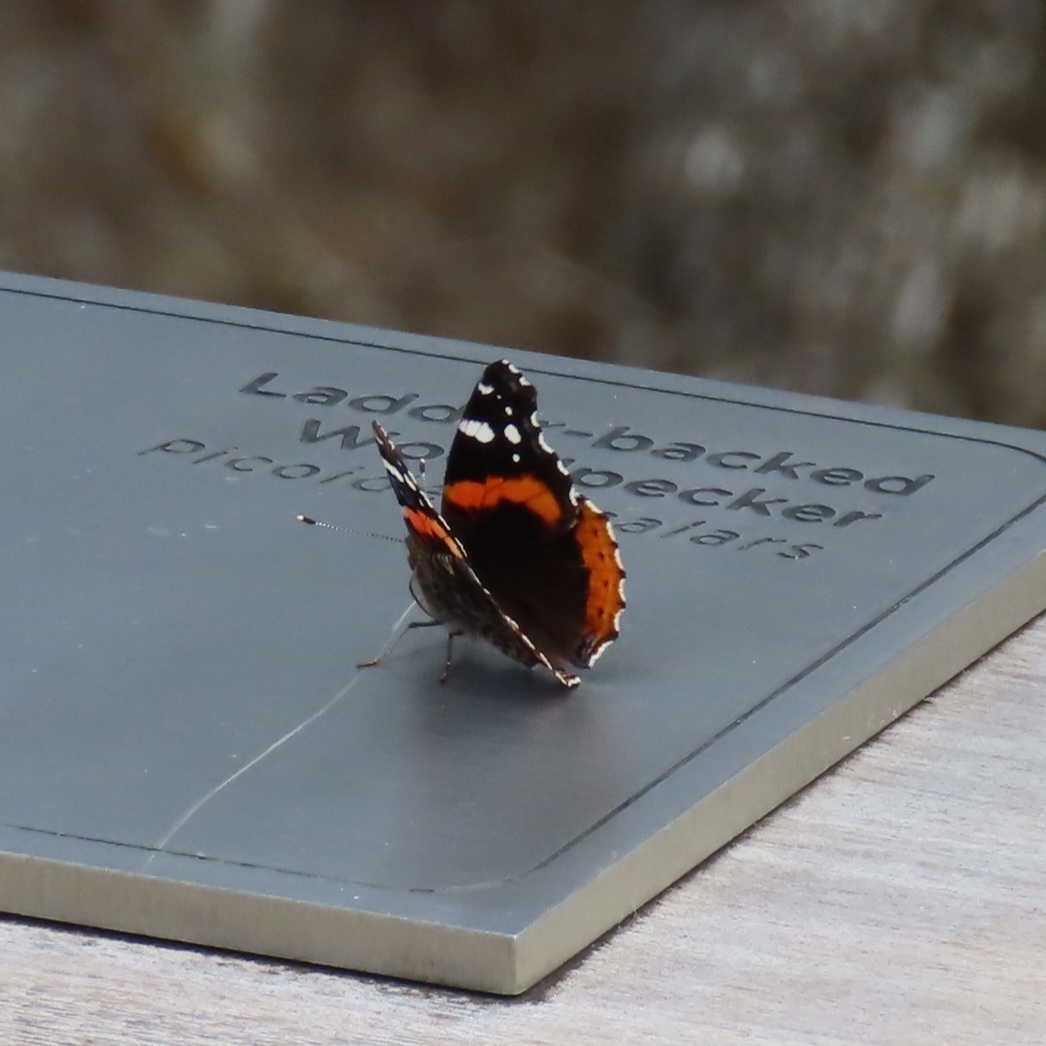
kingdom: Animalia
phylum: Arthropoda
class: Insecta
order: Lepidoptera
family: Nymphalidae
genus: Vanessa
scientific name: Vanessa atalanta
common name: Red admiral
